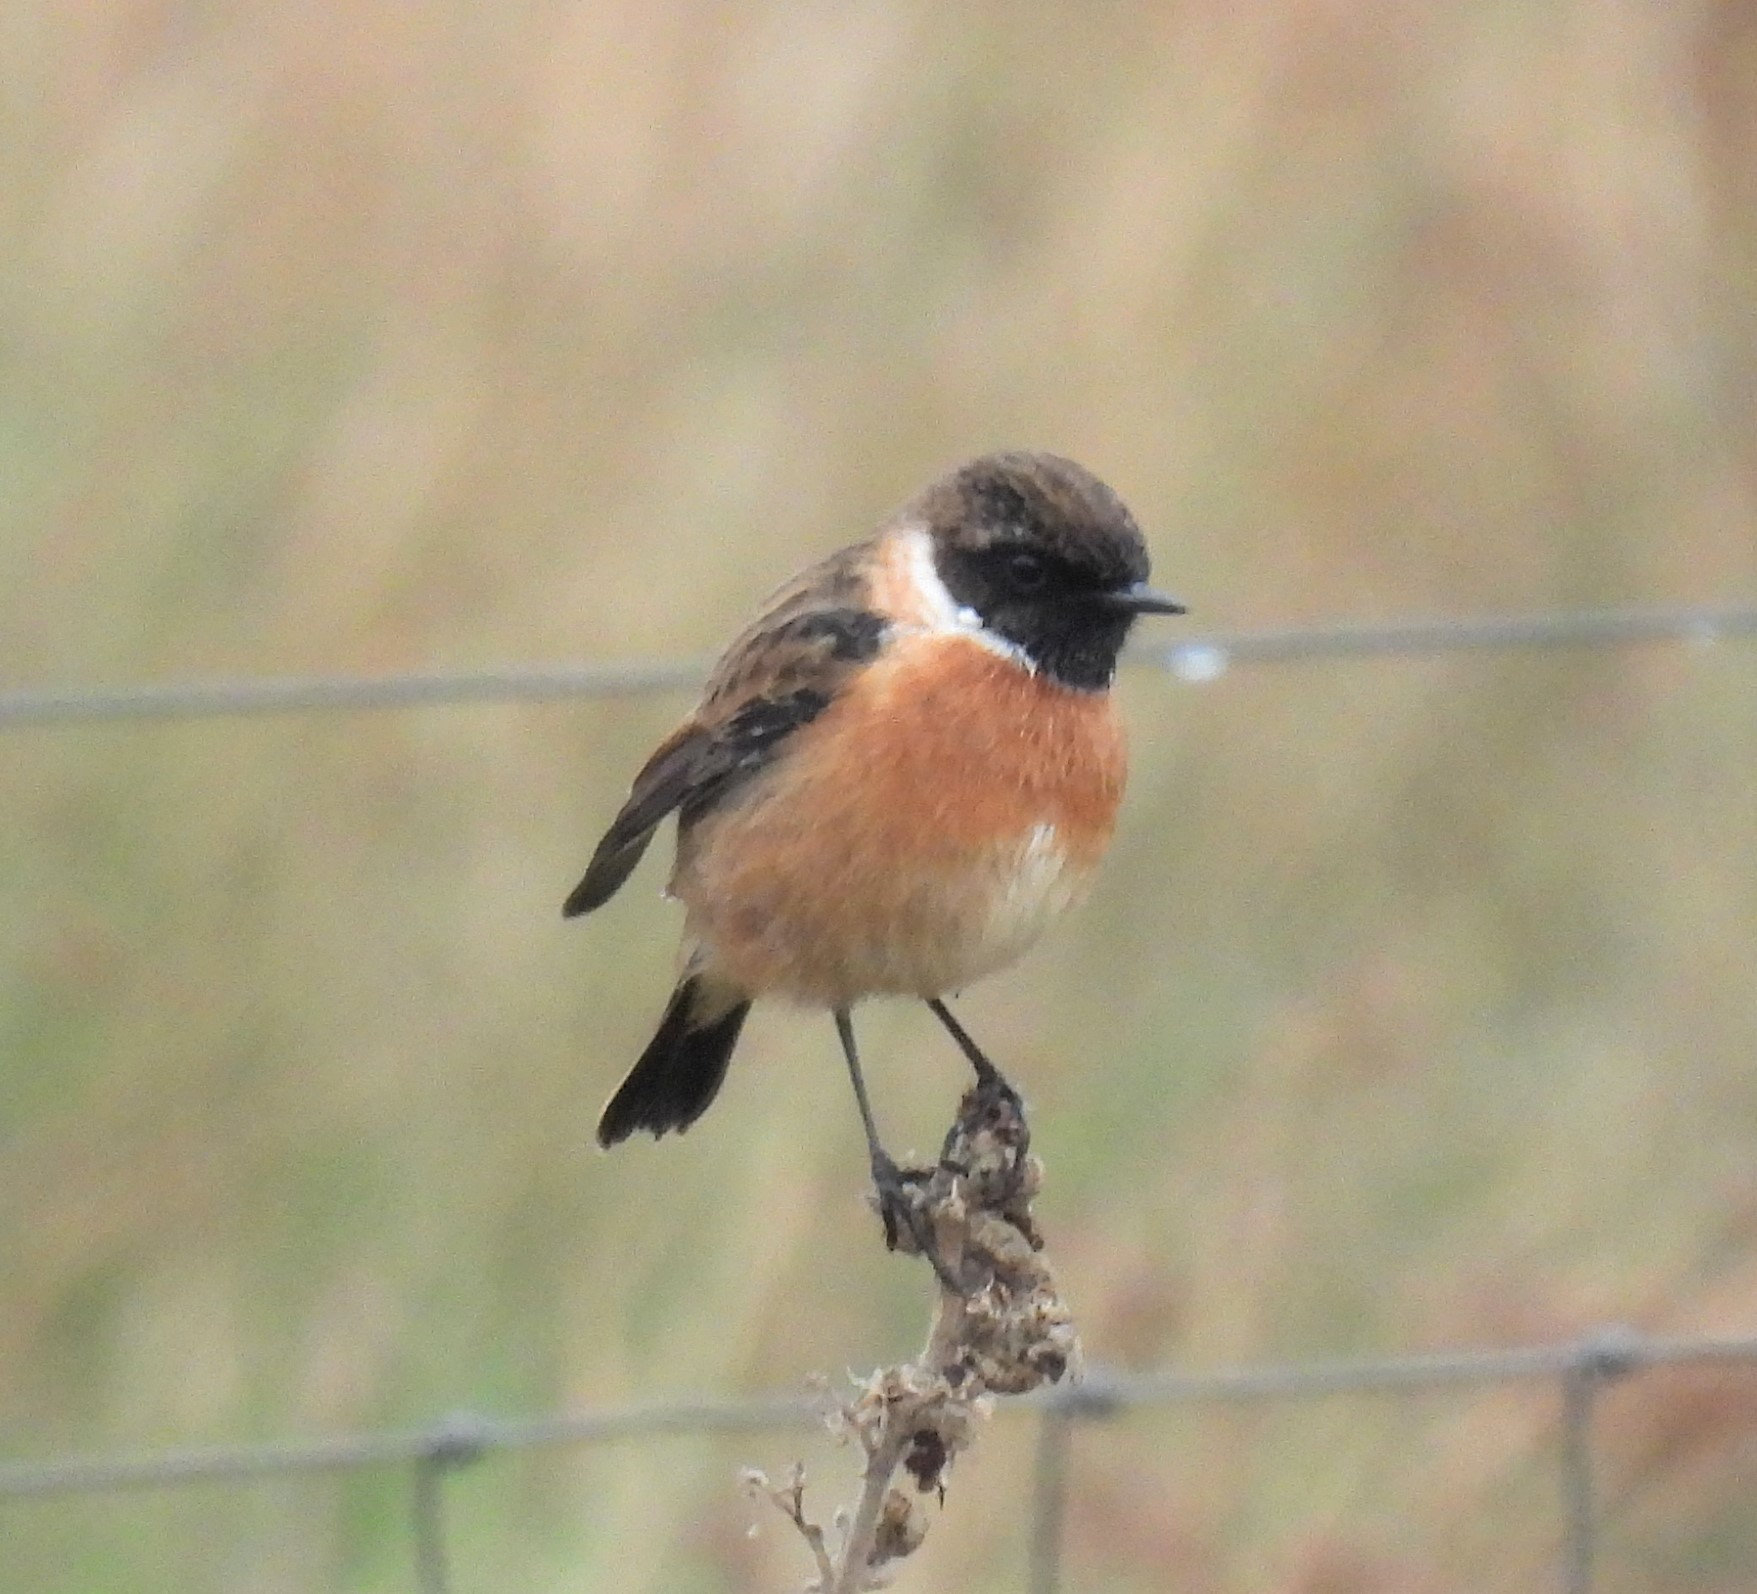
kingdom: Animalia
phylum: Chordata
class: Aves
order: Passeriformes
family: Muscicapidae
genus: Saxicola
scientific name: Saxicola rubicola
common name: European stonechat
